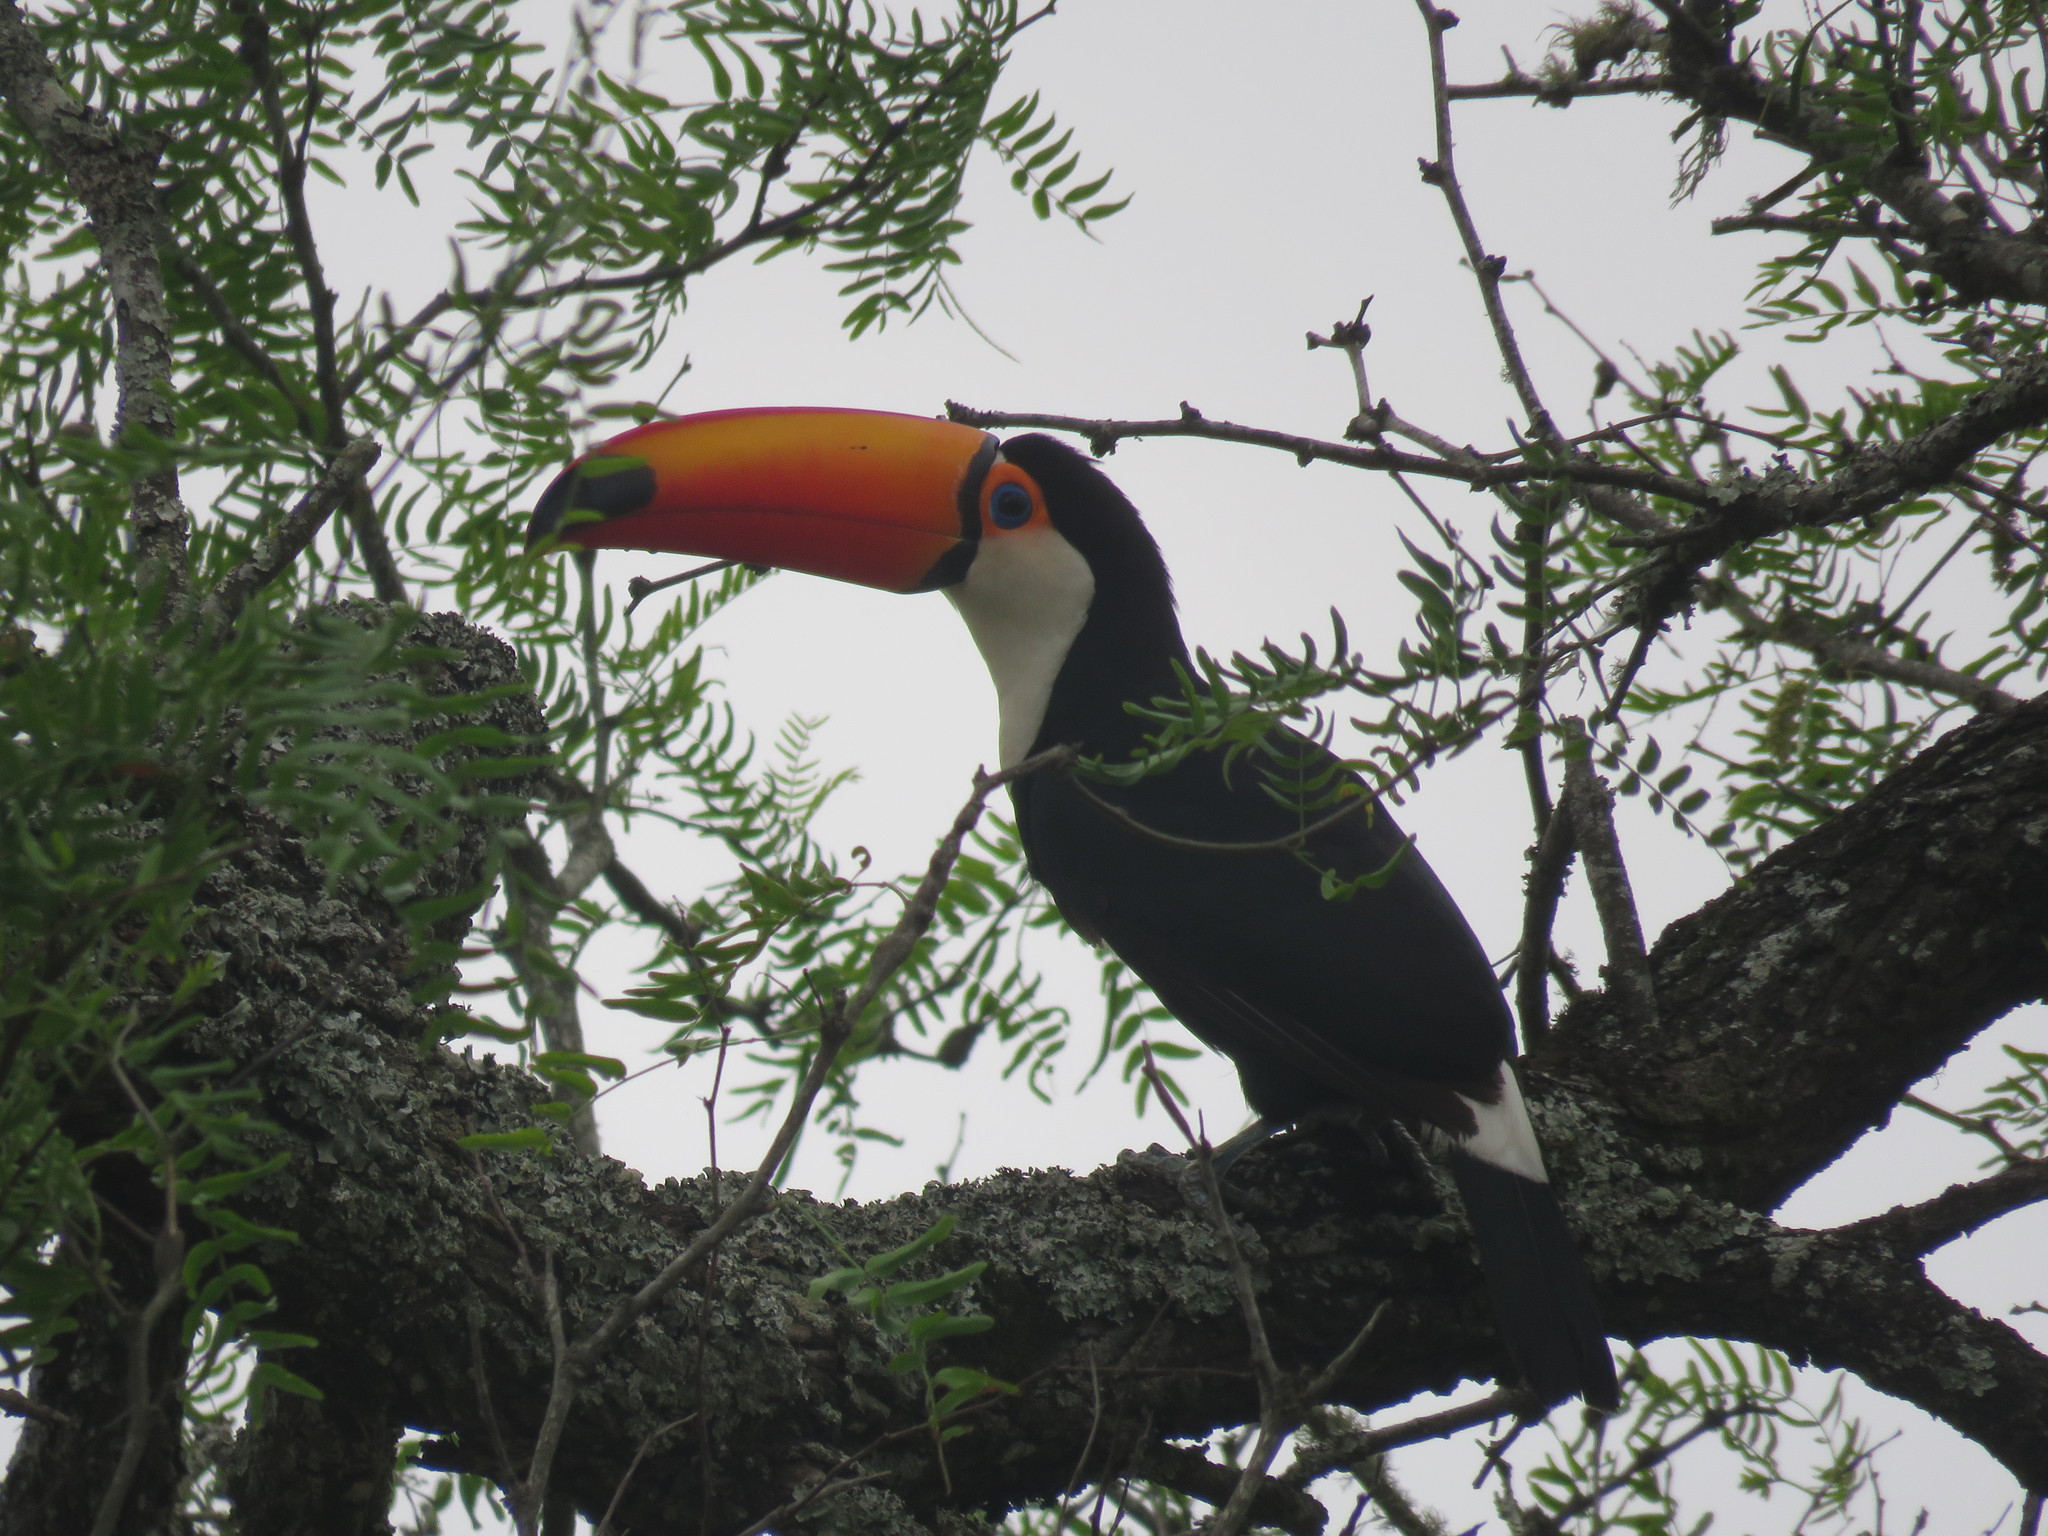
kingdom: Animalia
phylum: Chordata
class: Aves
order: Piciformes
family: Ramphastidae
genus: Ramphastos
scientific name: Ramphastos toco
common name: Toco toucan
